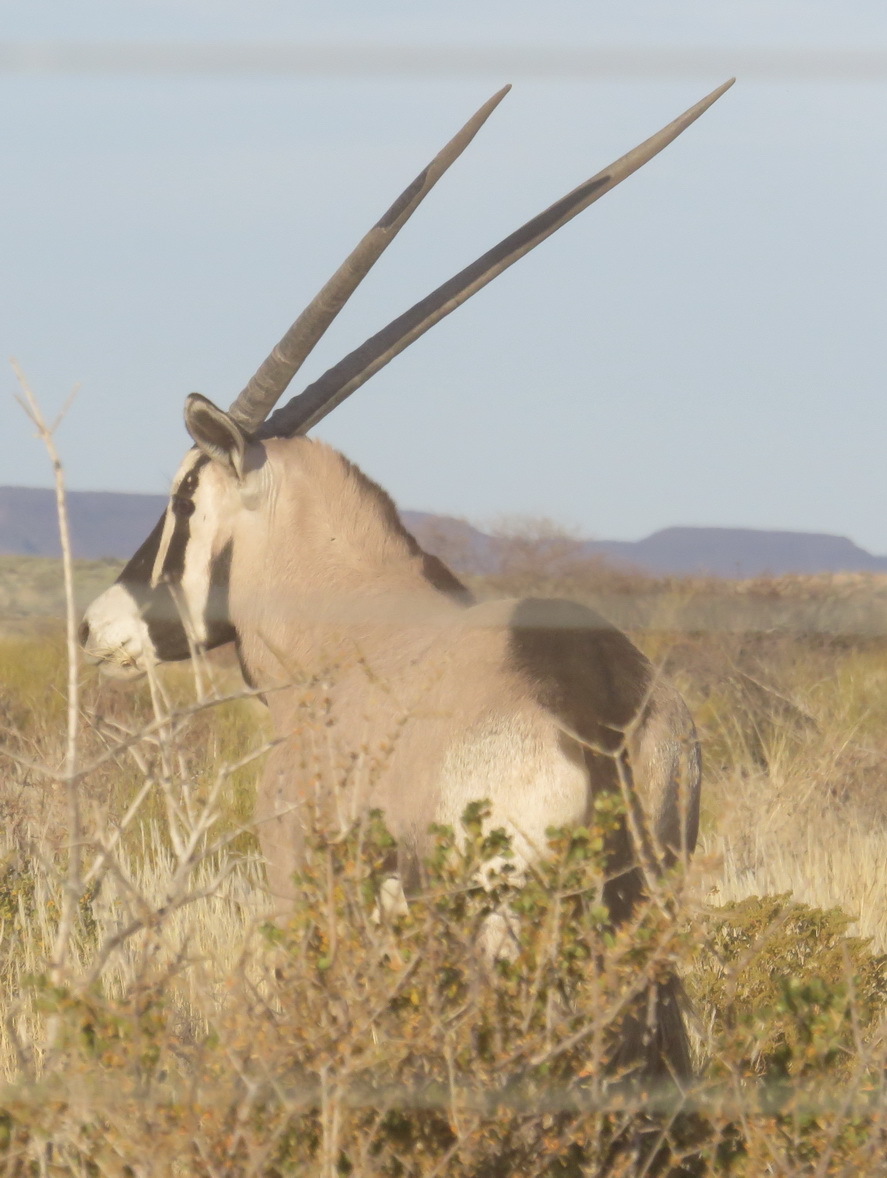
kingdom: Animalia
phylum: Chordata
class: Mammalia
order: Artiodactyla
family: Bovidae
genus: Oryx
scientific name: Oryx gazella
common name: Gemsbok
